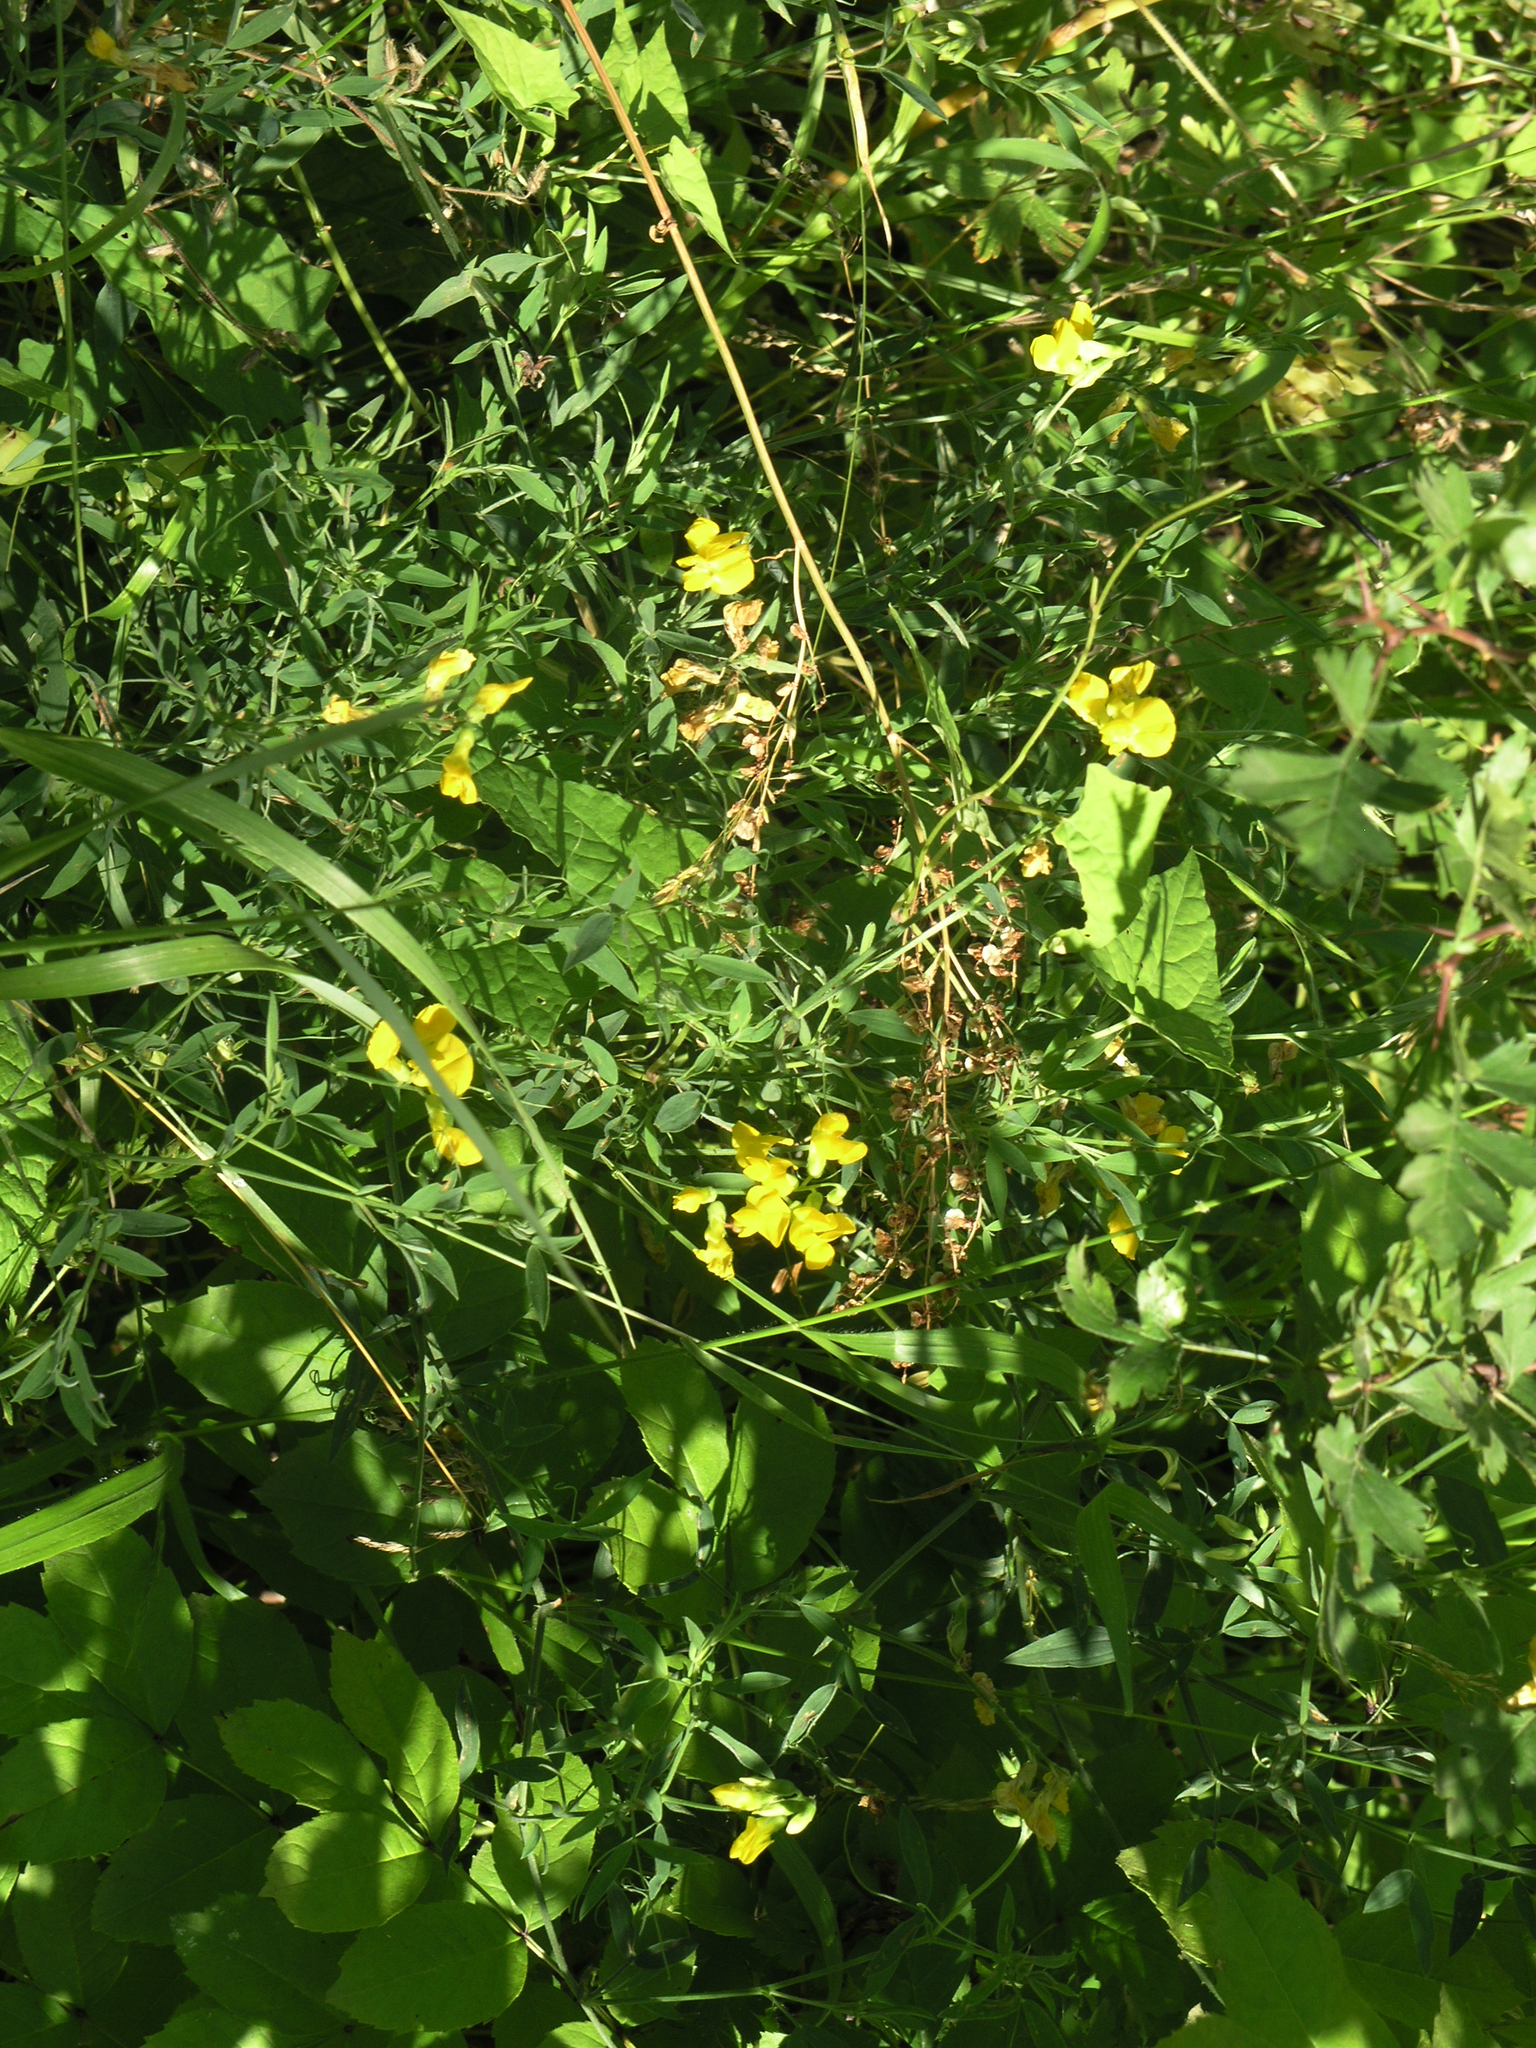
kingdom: Plantae
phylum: Tracheophyta
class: Magnoliopsida
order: Fabales
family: Fabaceae
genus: Lathyrus
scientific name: Lathyrus pratensis
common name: Meadow vetchling
